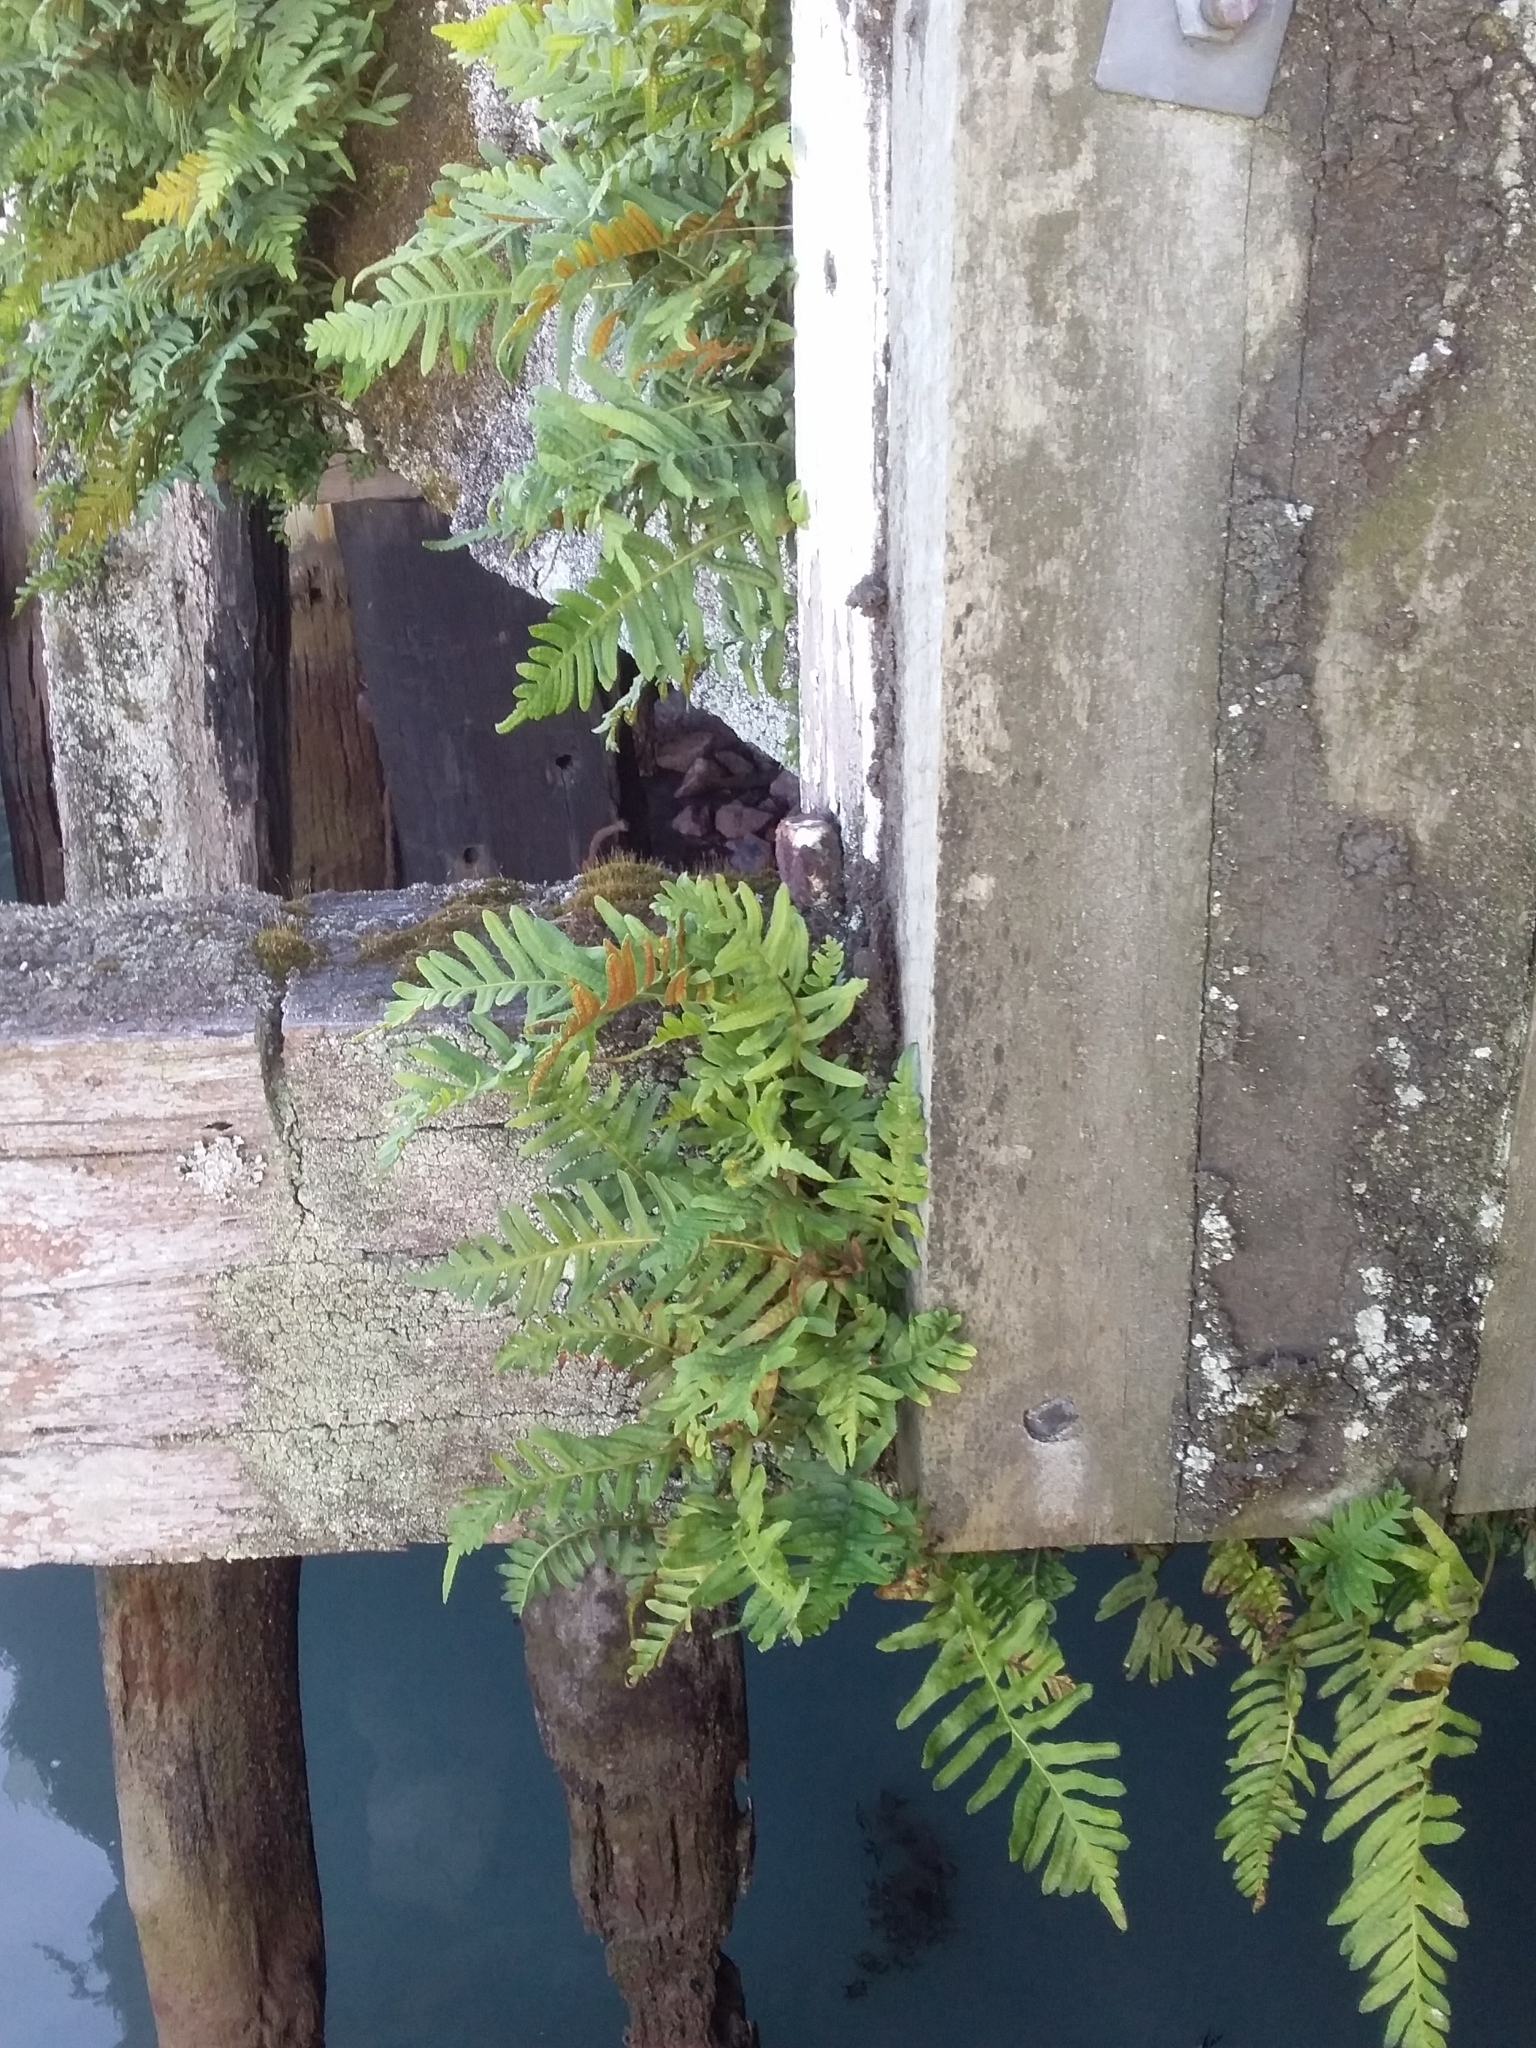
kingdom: Plantae
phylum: Tracheophyta
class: Polypodiopsida
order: Polypodiales
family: Polypodiaceae
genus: Polypodium
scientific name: Polypodium vulgare
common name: Common polypody
